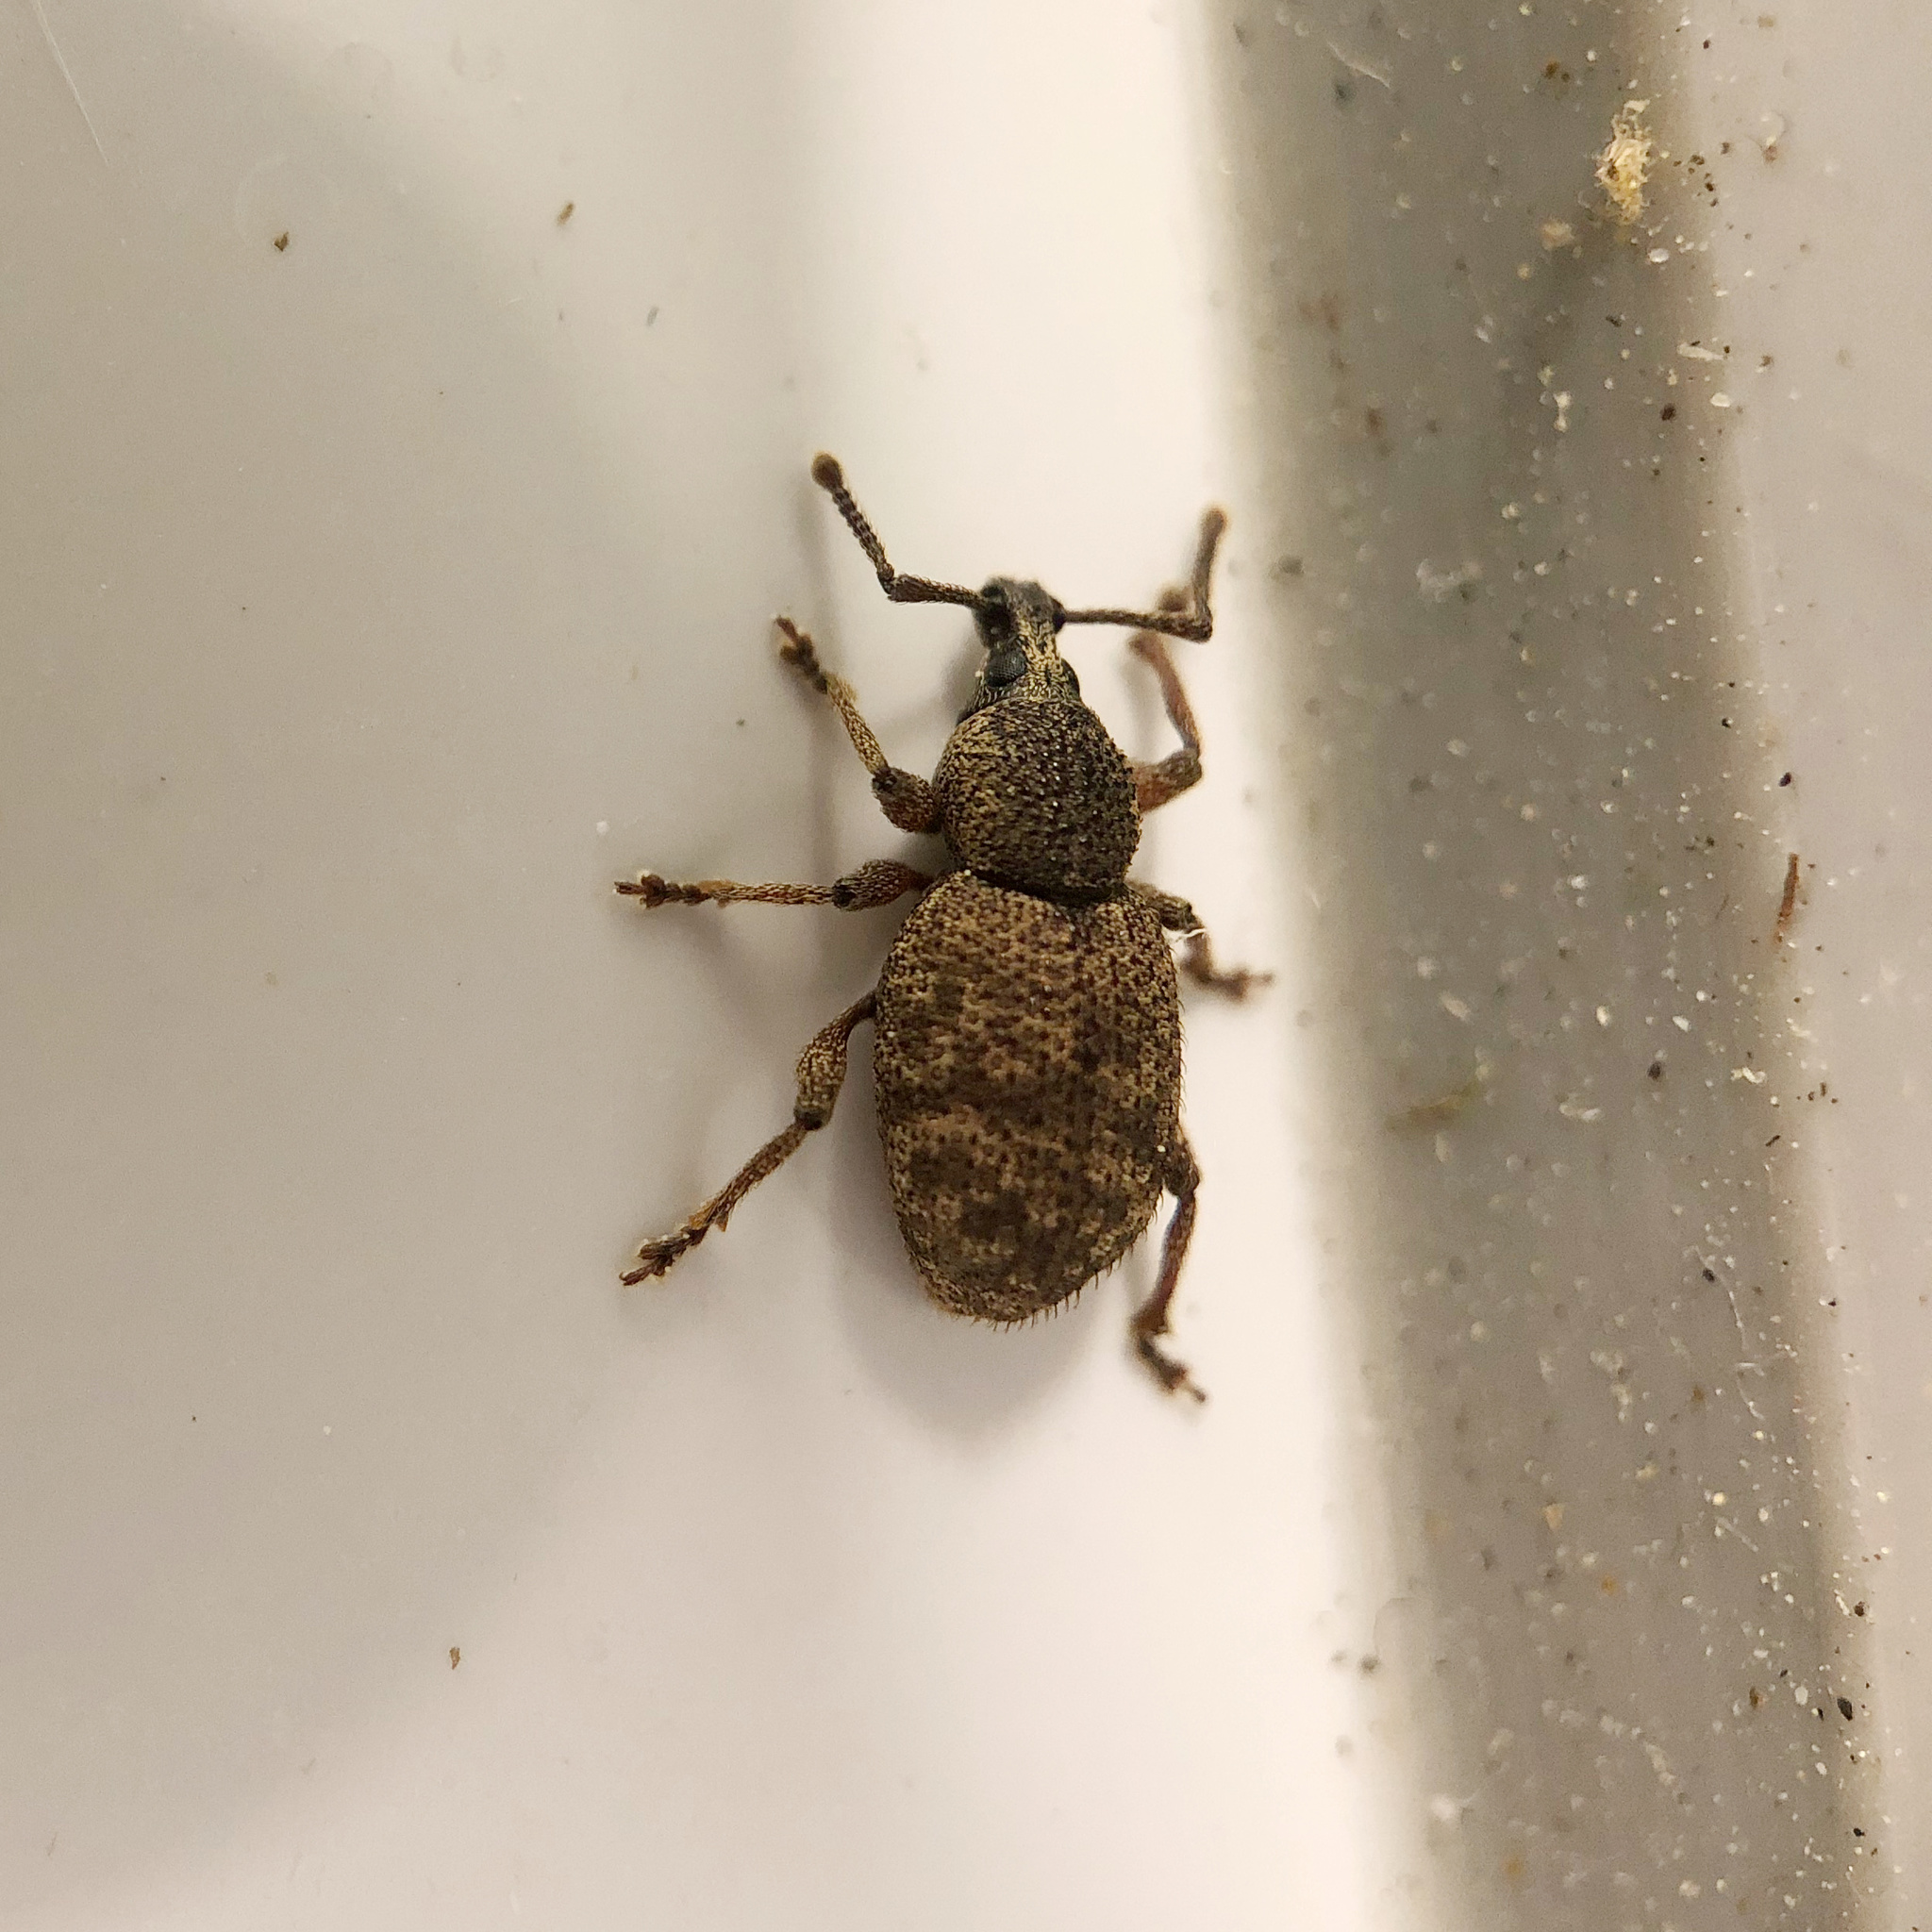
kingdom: Animalia
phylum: Arthropoda
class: Insecta
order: Coleoptera
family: Curculionidae
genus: Otiorhynchus
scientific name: Otiorhynchus singularis
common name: Clay-coloured weevil
